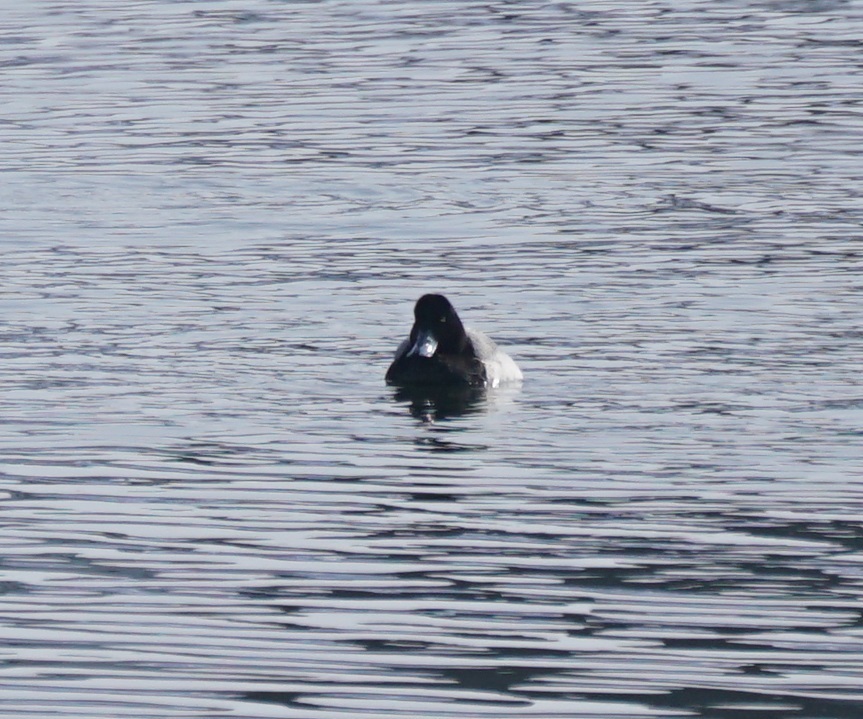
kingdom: Animalia
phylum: Chordata
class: Aves
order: Anseriformes
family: Anatidae
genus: Aythya
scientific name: Aythya marila
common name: Greater scaup
